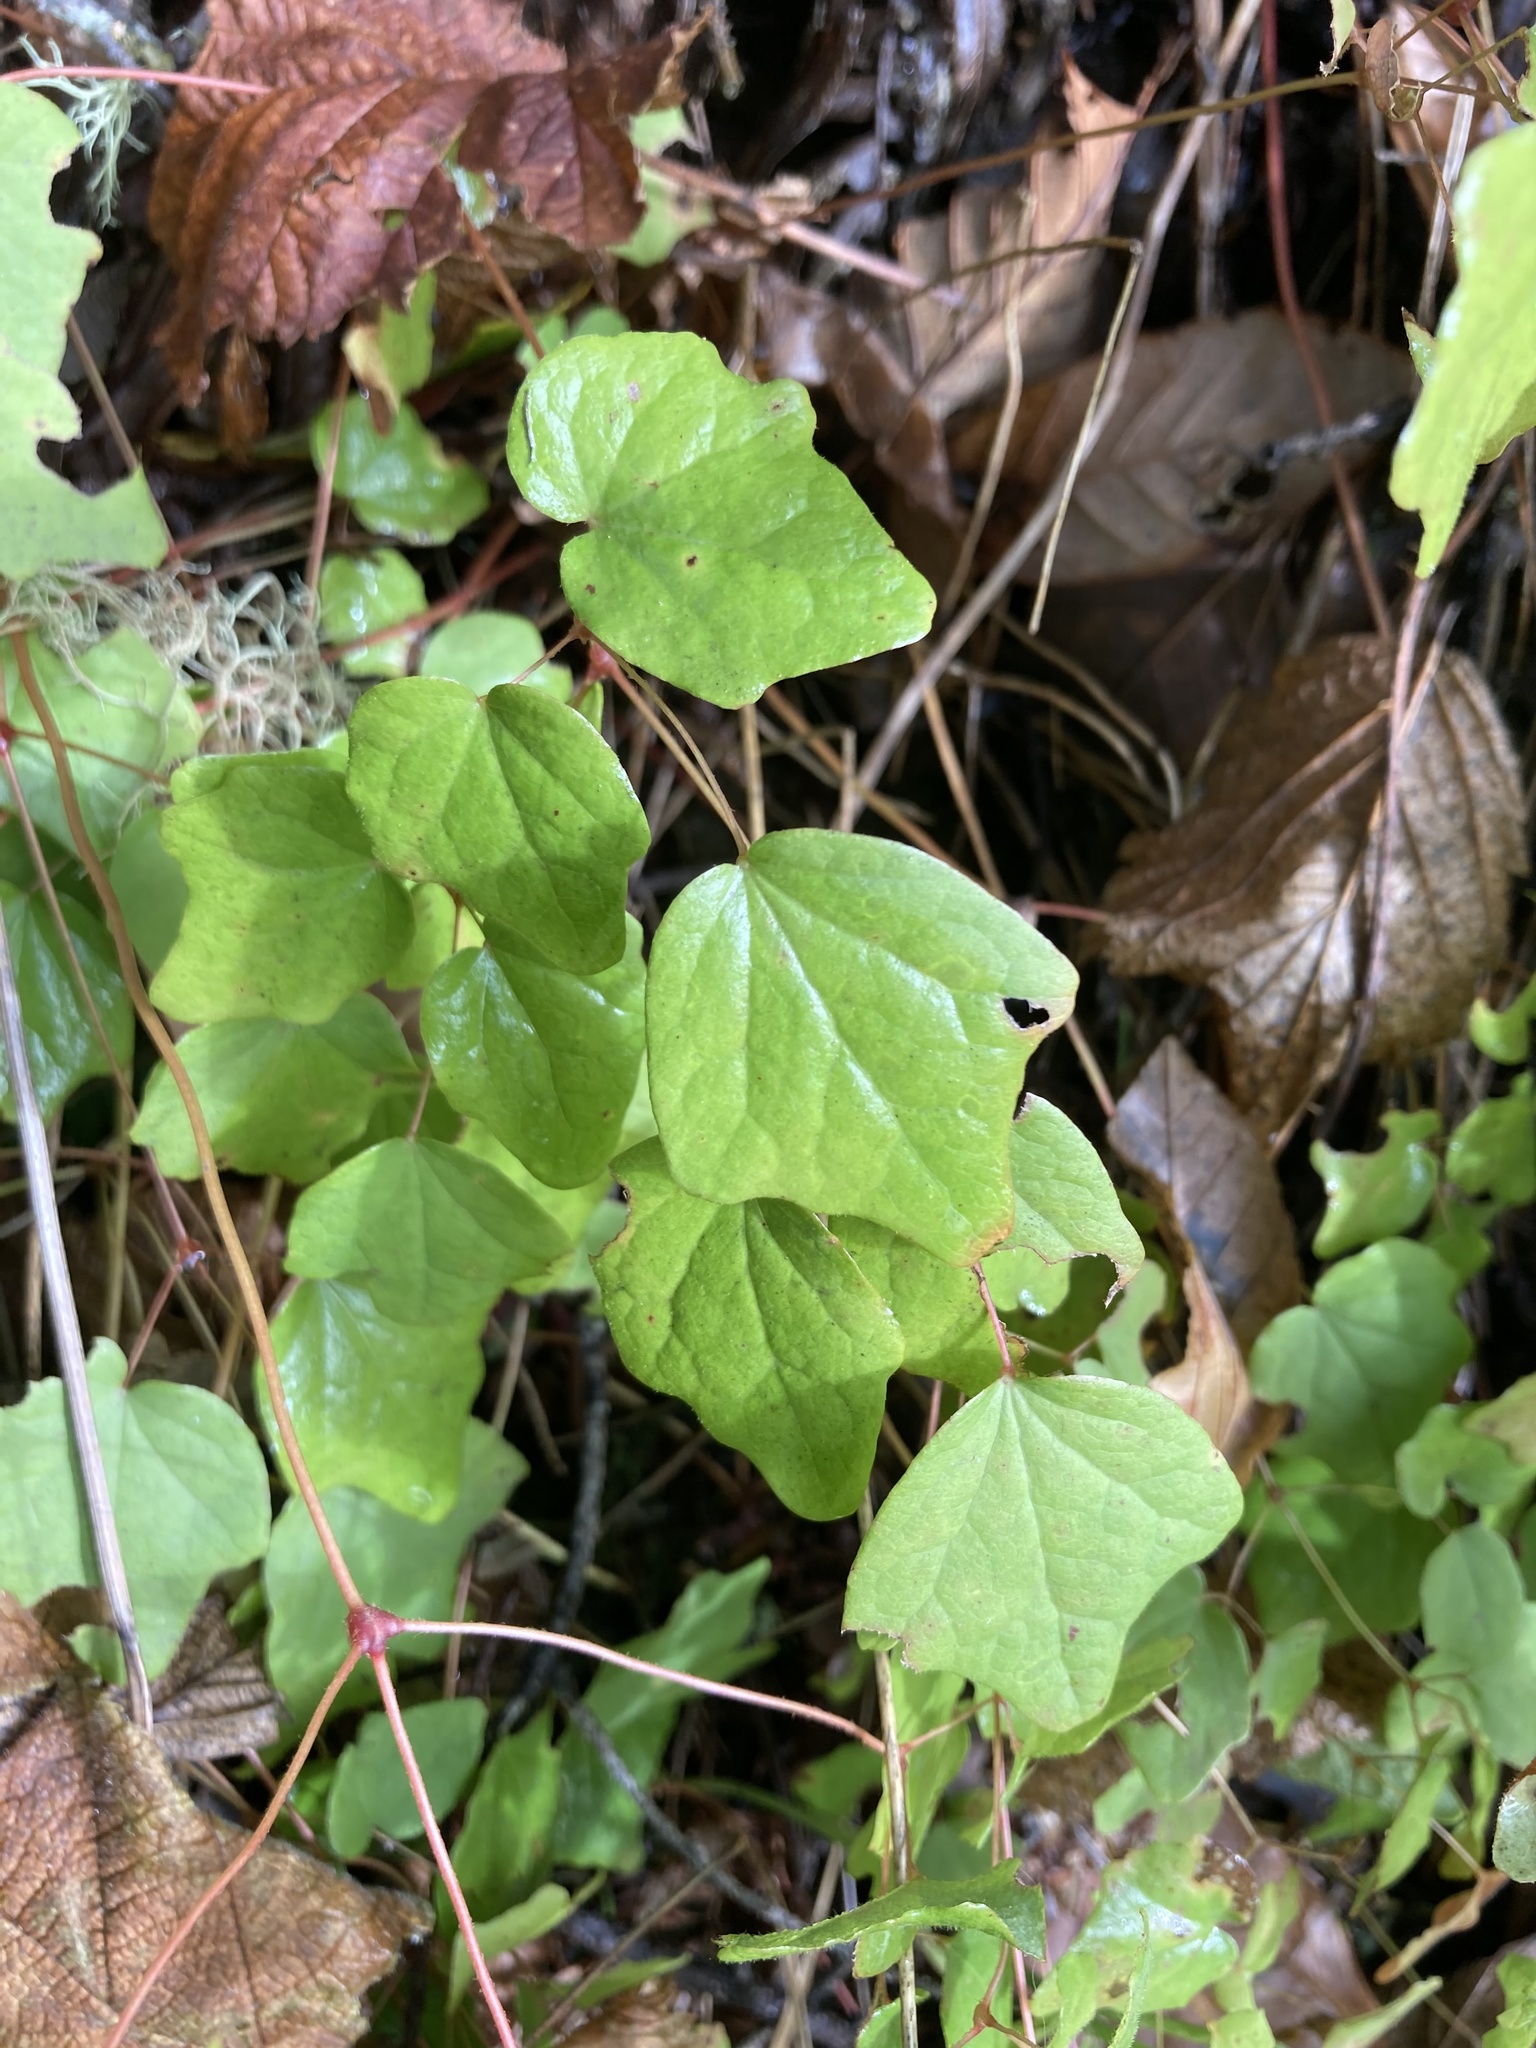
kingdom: Plantae
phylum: Tracheophyta
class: Magnoliopsida
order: Ranunculales
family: Berberidaceae
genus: Vancouveria
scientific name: Vancouveria hexandra
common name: Northern inside-out-flower
